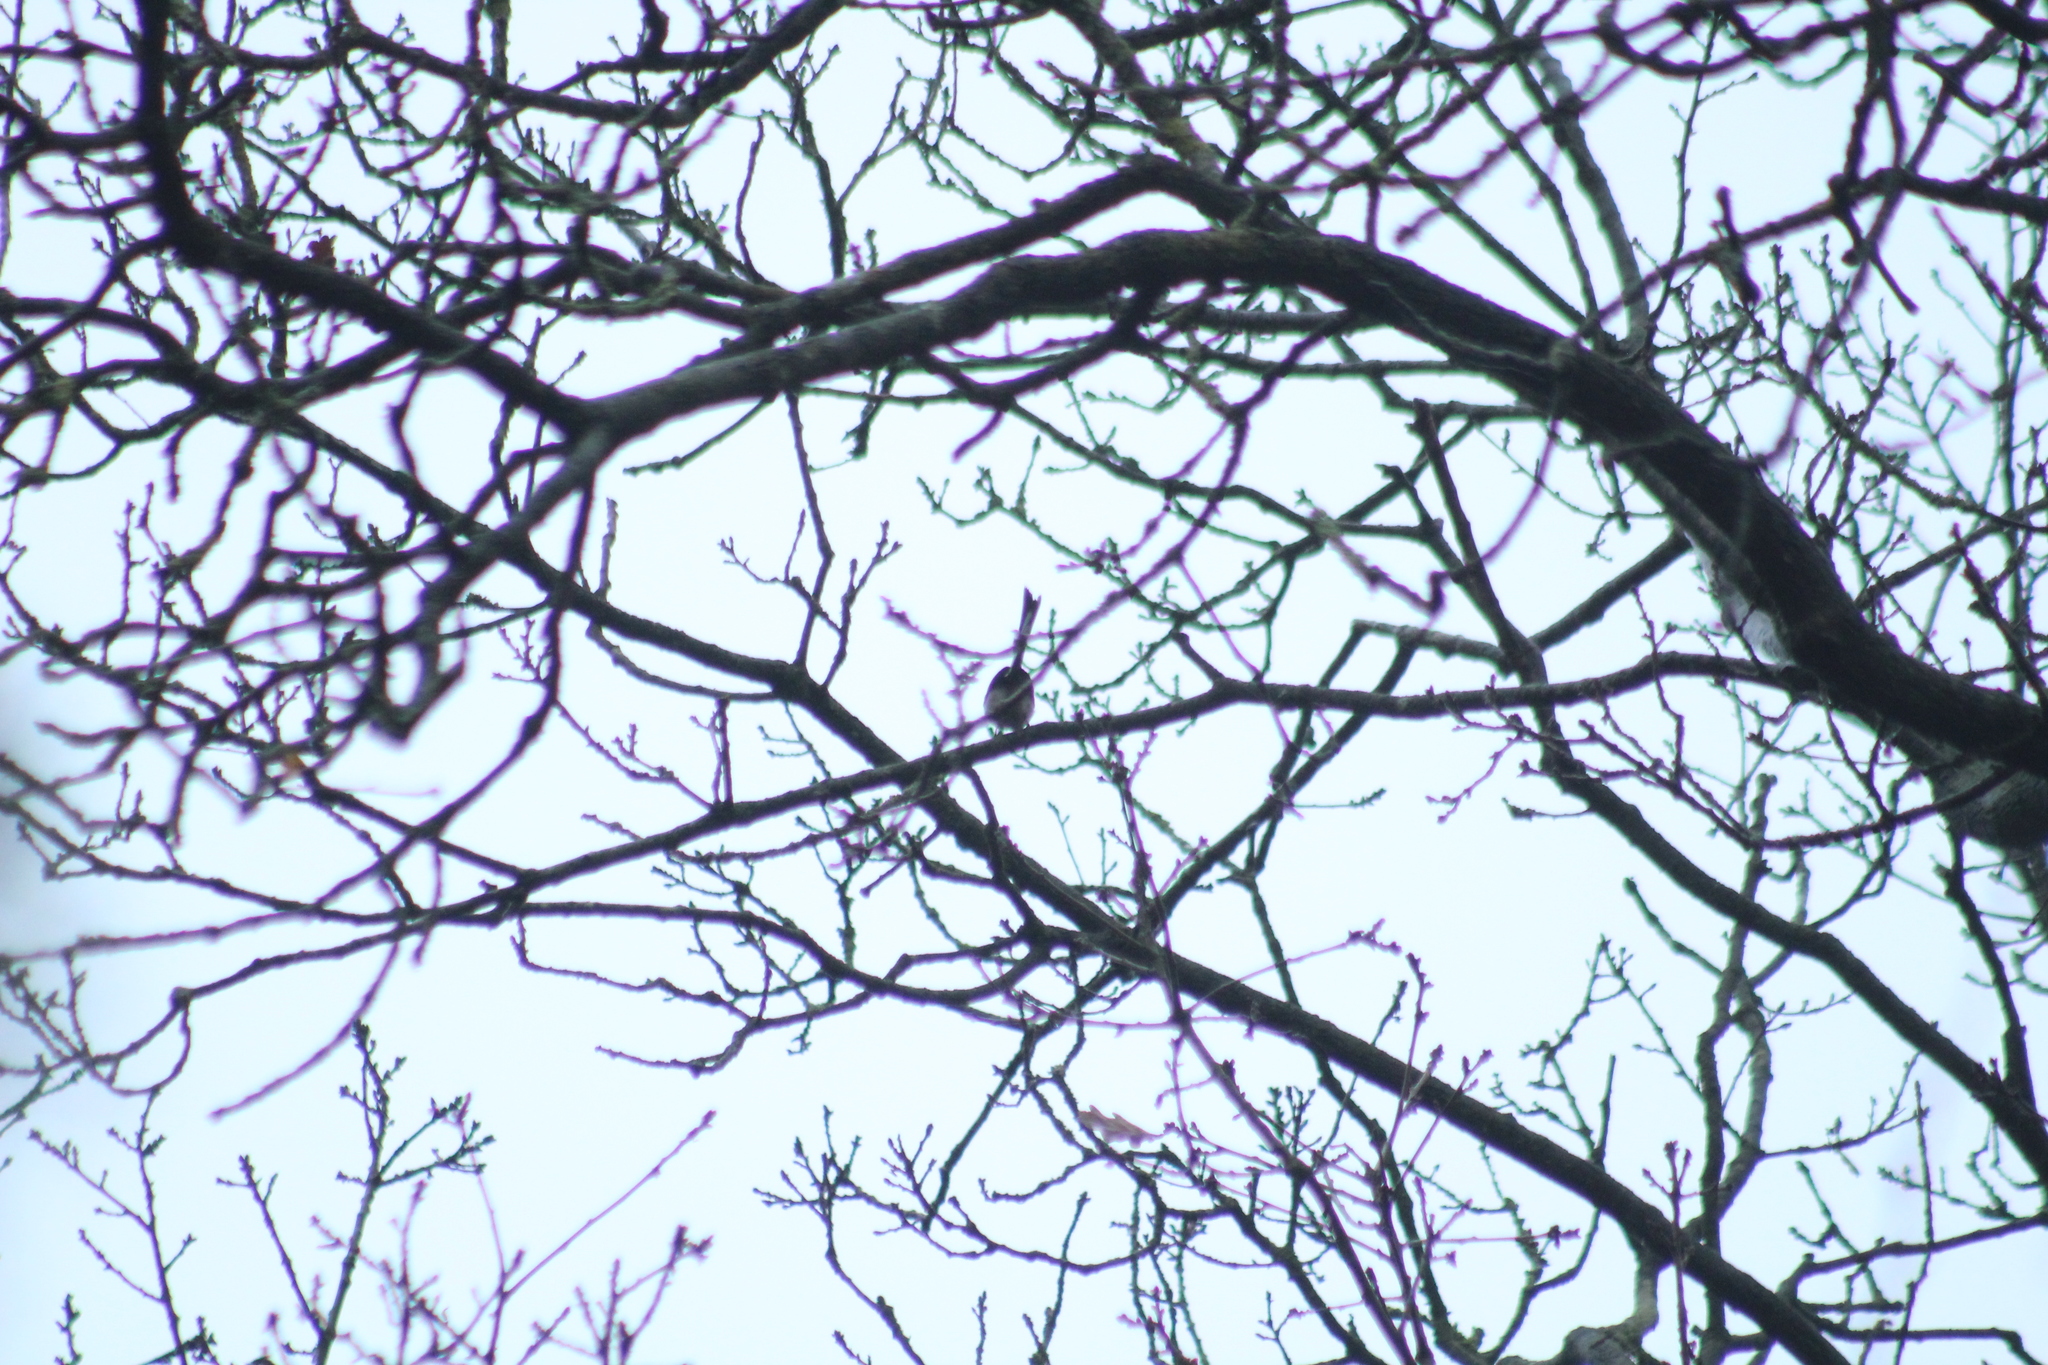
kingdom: Animalia
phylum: Chordata
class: Aves
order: Passeriformes
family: Aegithalidae
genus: Aegithalos
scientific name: Aegithalos caudatus
